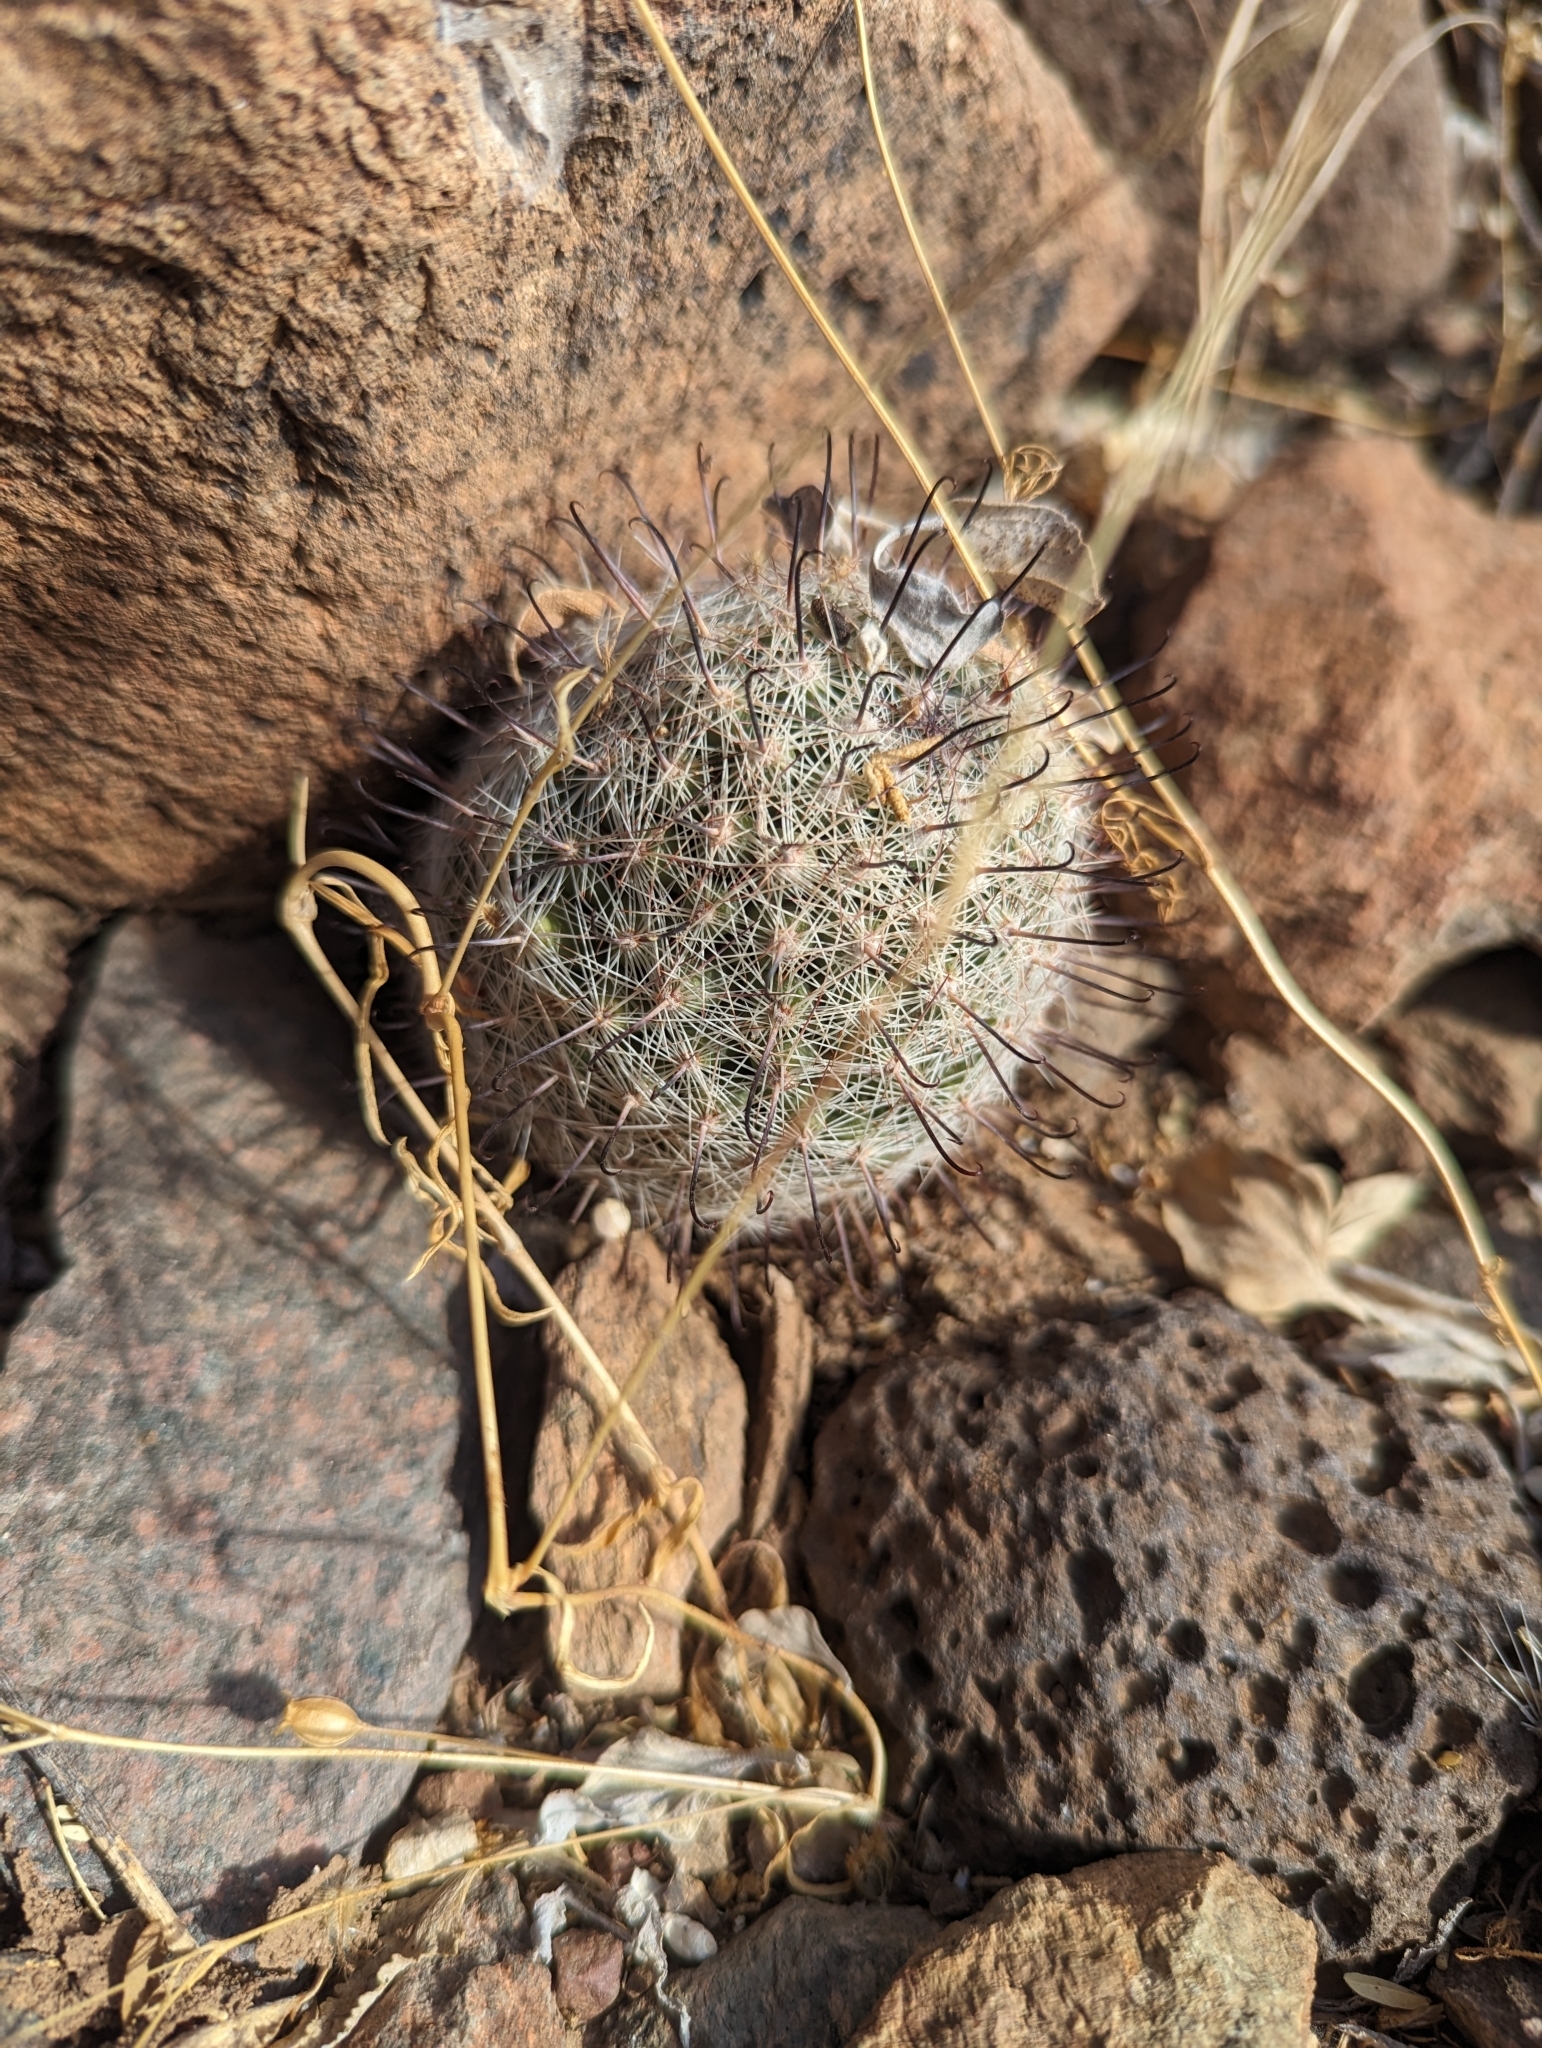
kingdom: Plantae
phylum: Tracheophyta
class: Magnoliopsida
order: Caryophyllales
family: Cactaceae
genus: Cochemiea
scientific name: Cochemiea grahamii
